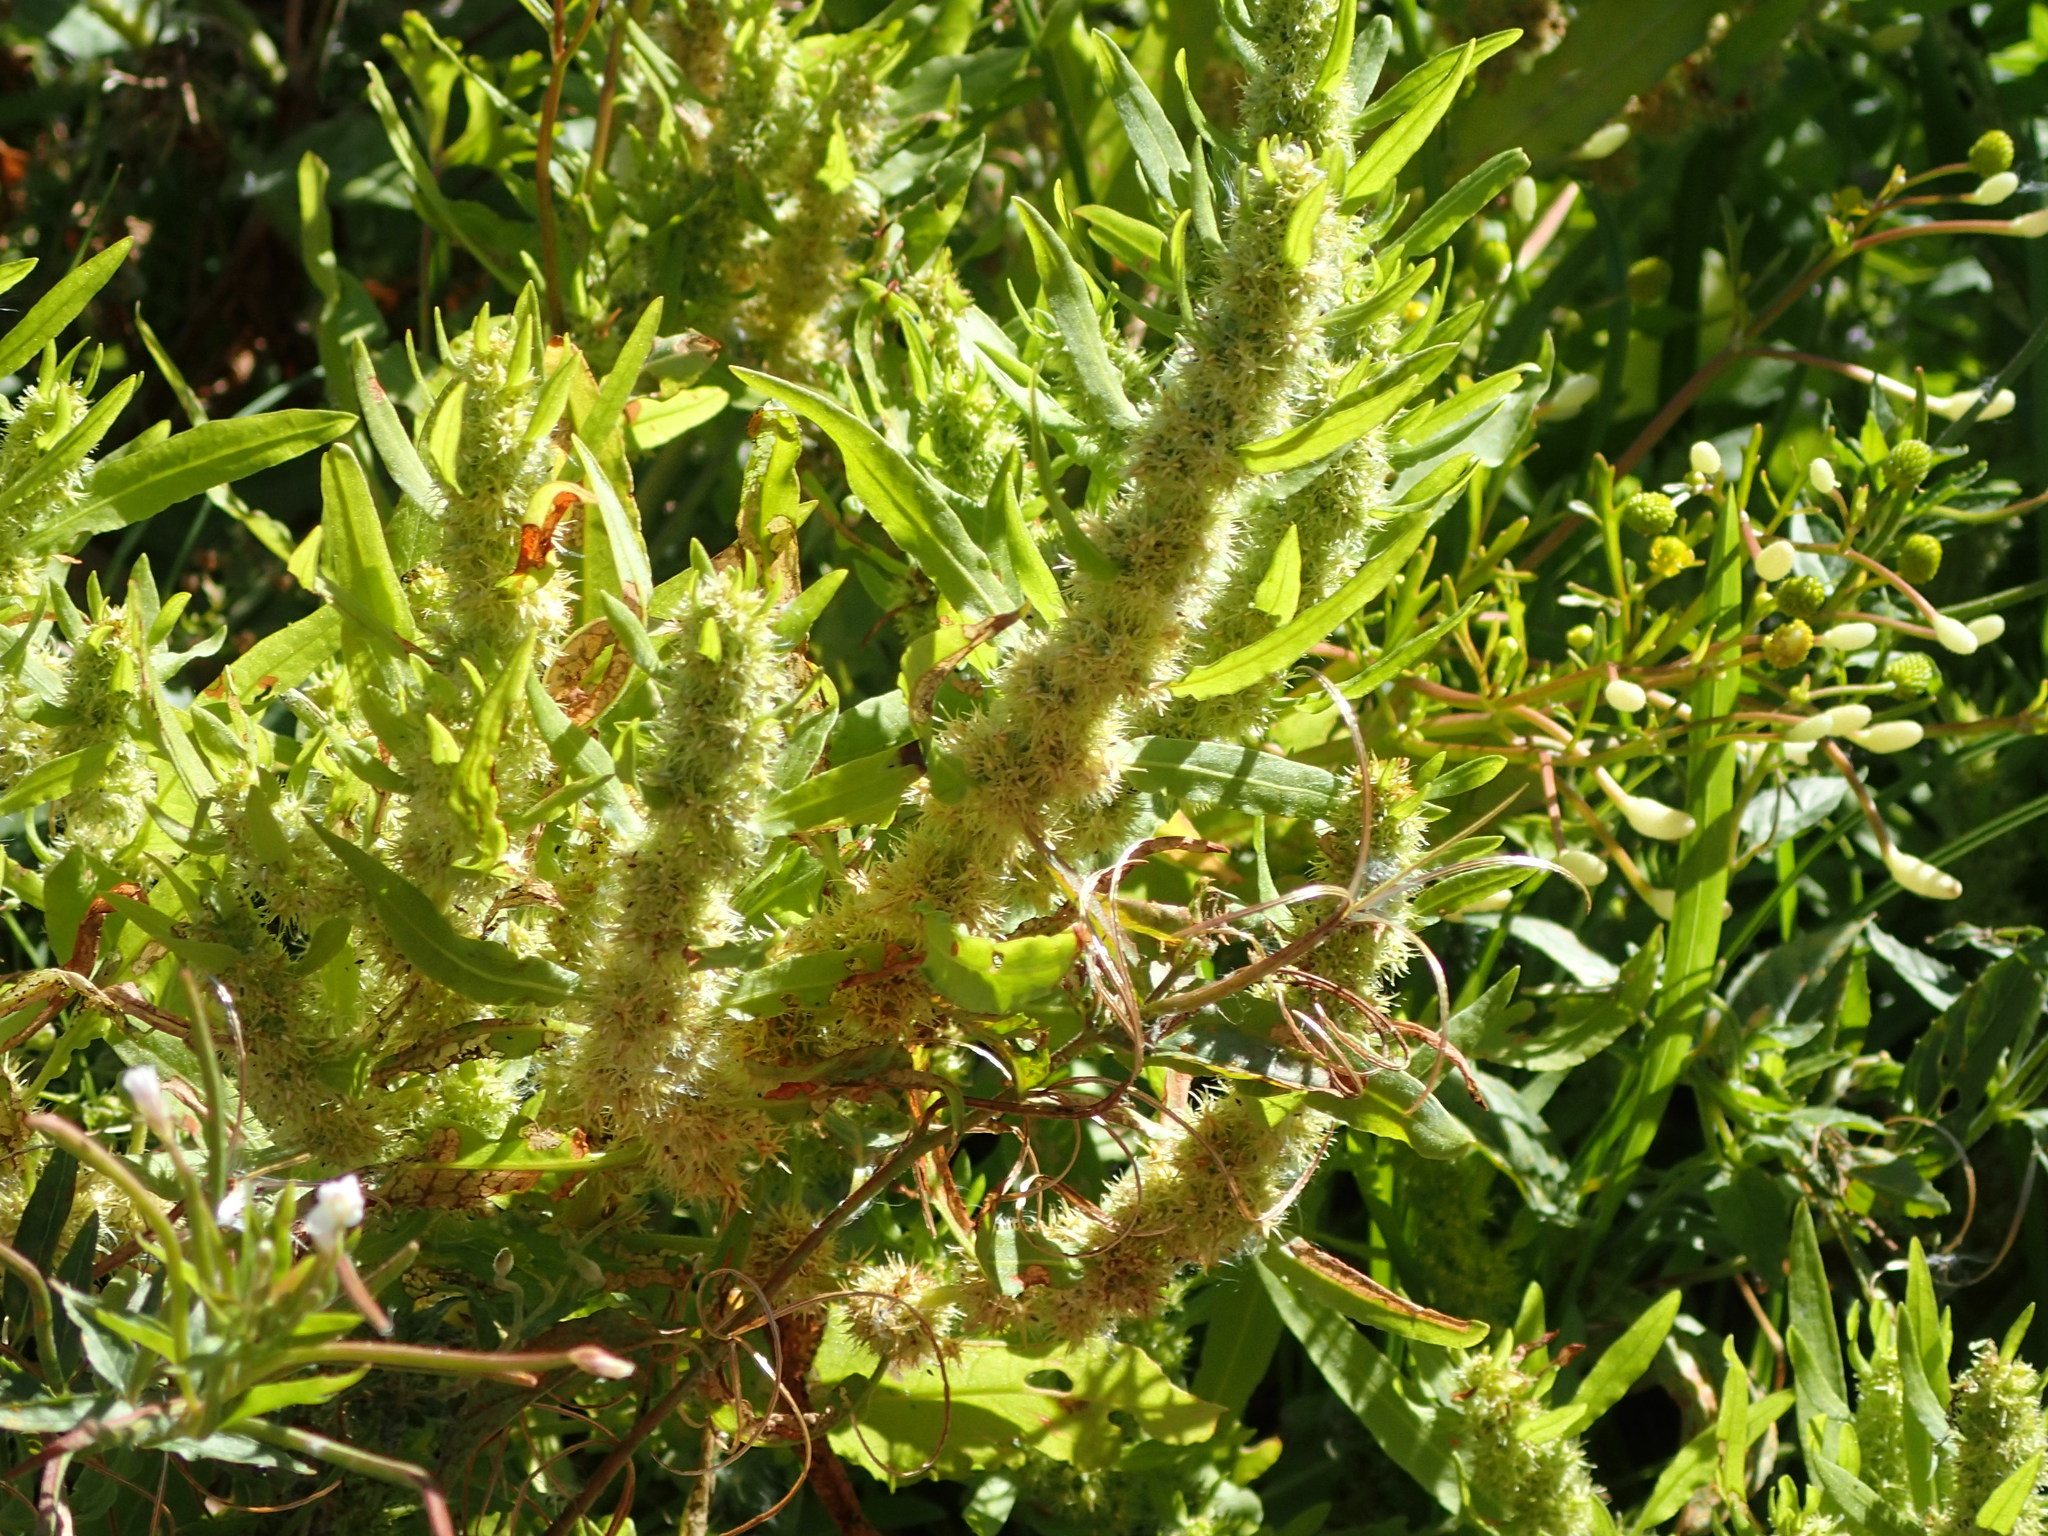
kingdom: Plantae
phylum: Tracheophyta
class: Magnoliopsida
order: Caryophyllales
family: Polygonaceae
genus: Rumex
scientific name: Rumex fueginus
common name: American golden dock
